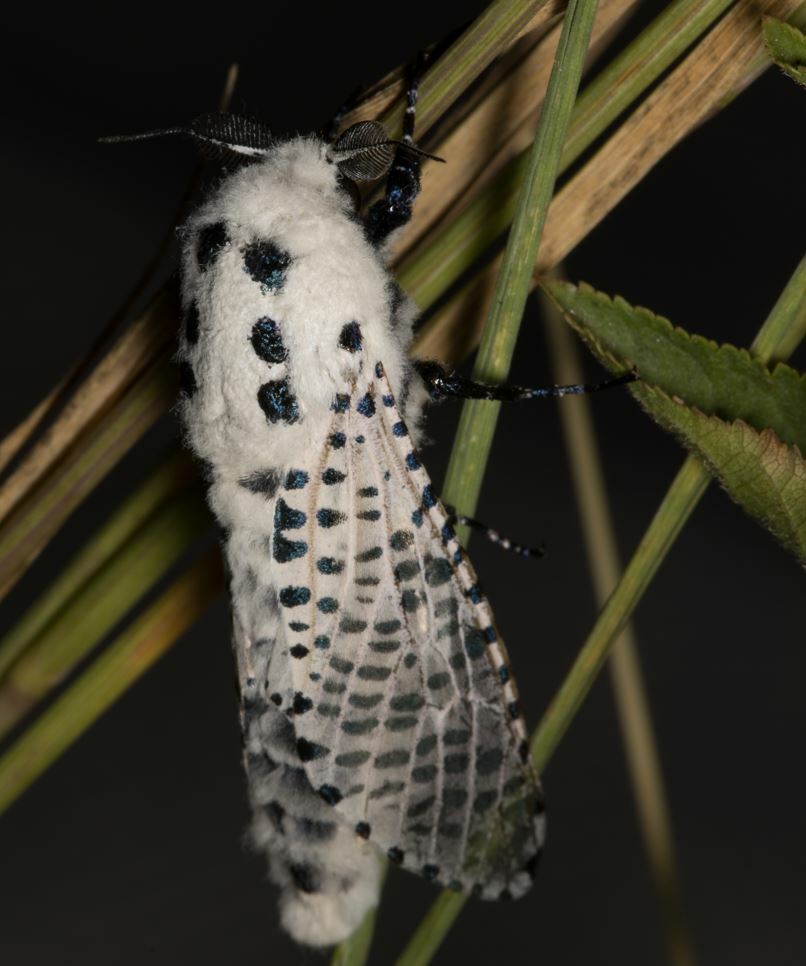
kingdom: Animalia
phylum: Arthropoda
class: Insecta
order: Lepidoptera
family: Cossidae
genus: Zeuzera
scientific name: Zeuzera pyrina
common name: Leopard moth
